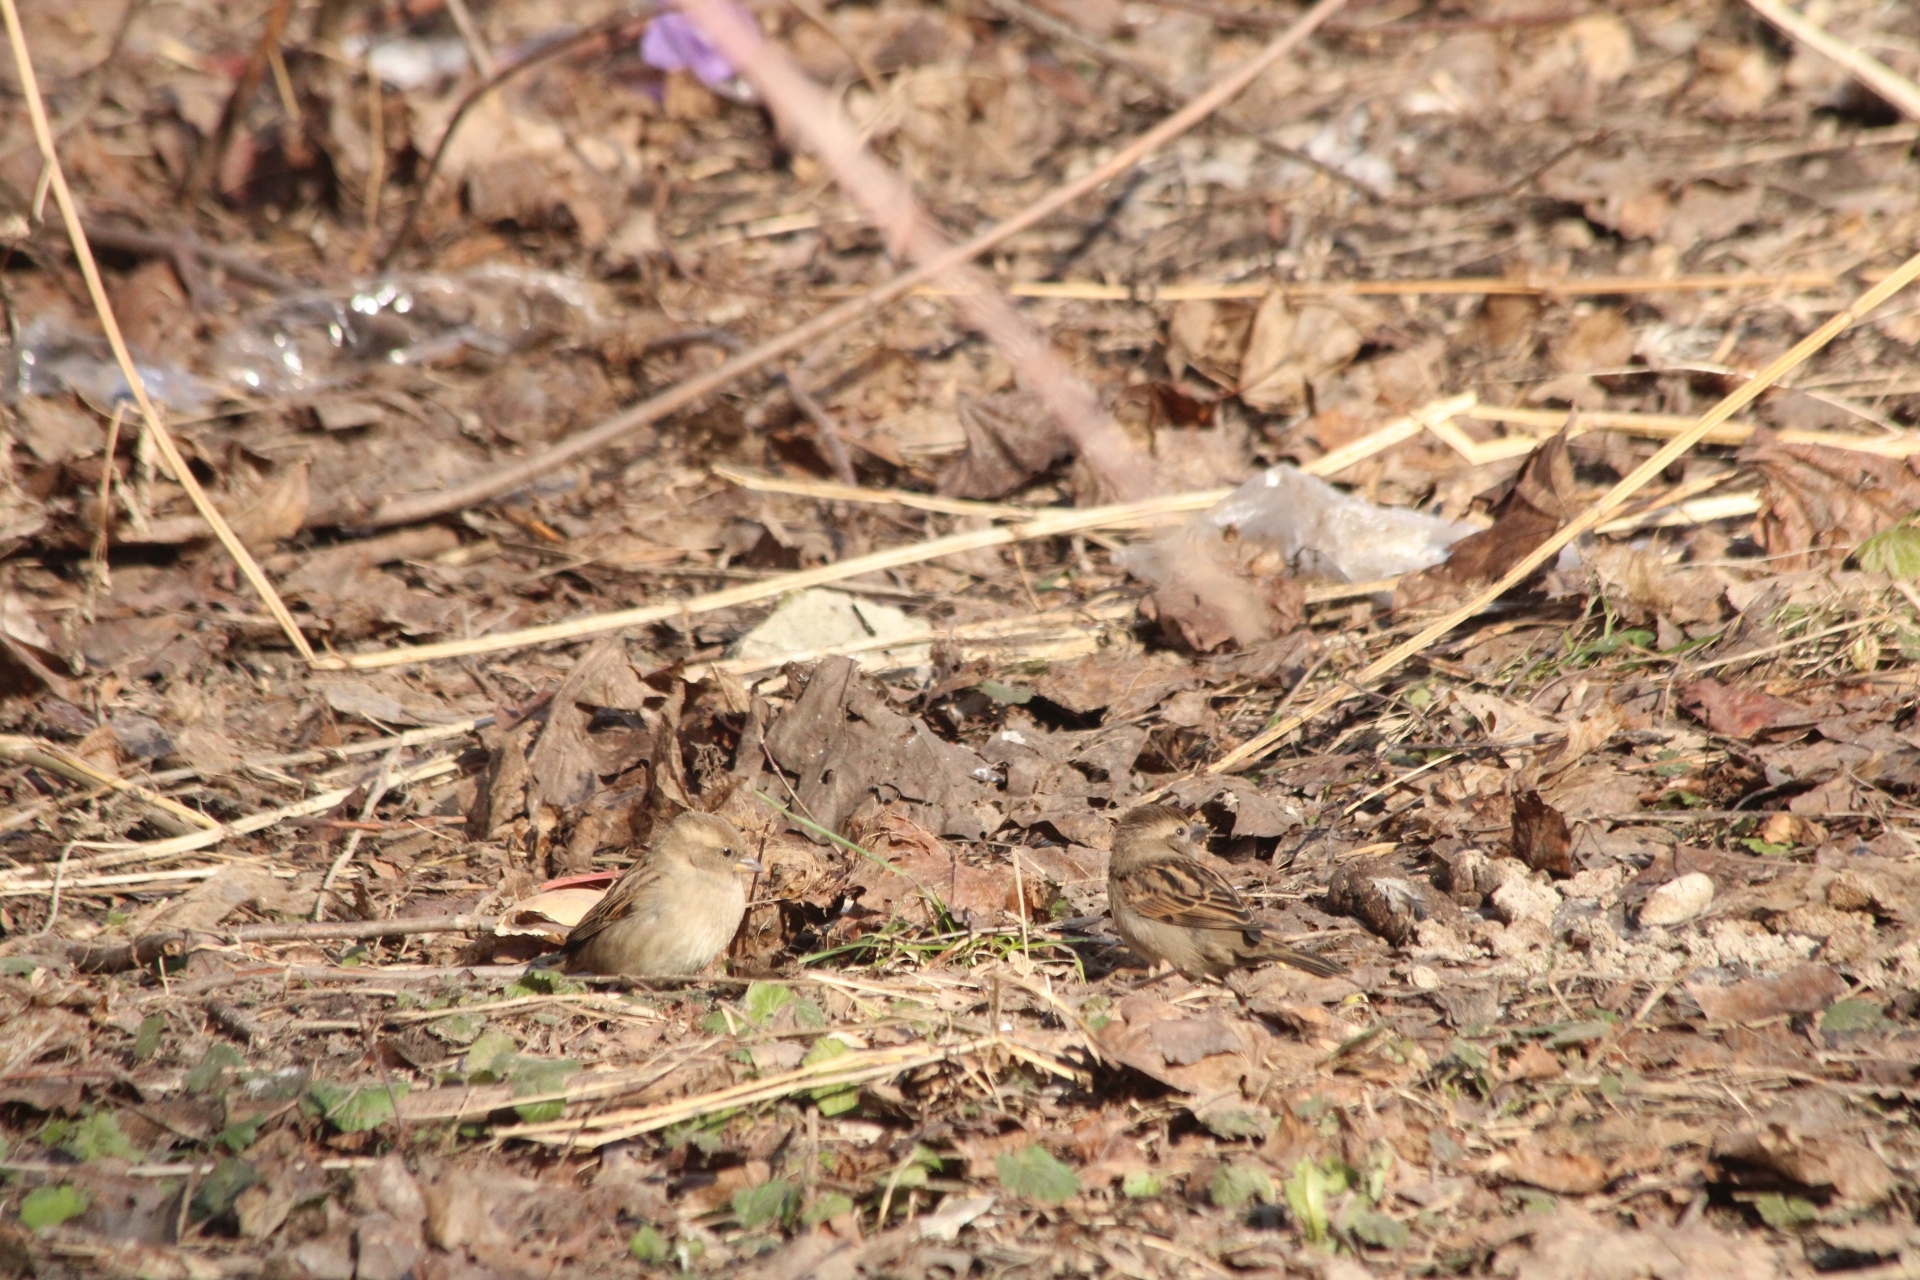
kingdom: Animalia
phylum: Chordata
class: Aves
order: Passeriformes
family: Passeridae
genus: Passer
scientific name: Passer domesticus
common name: House sparrow
